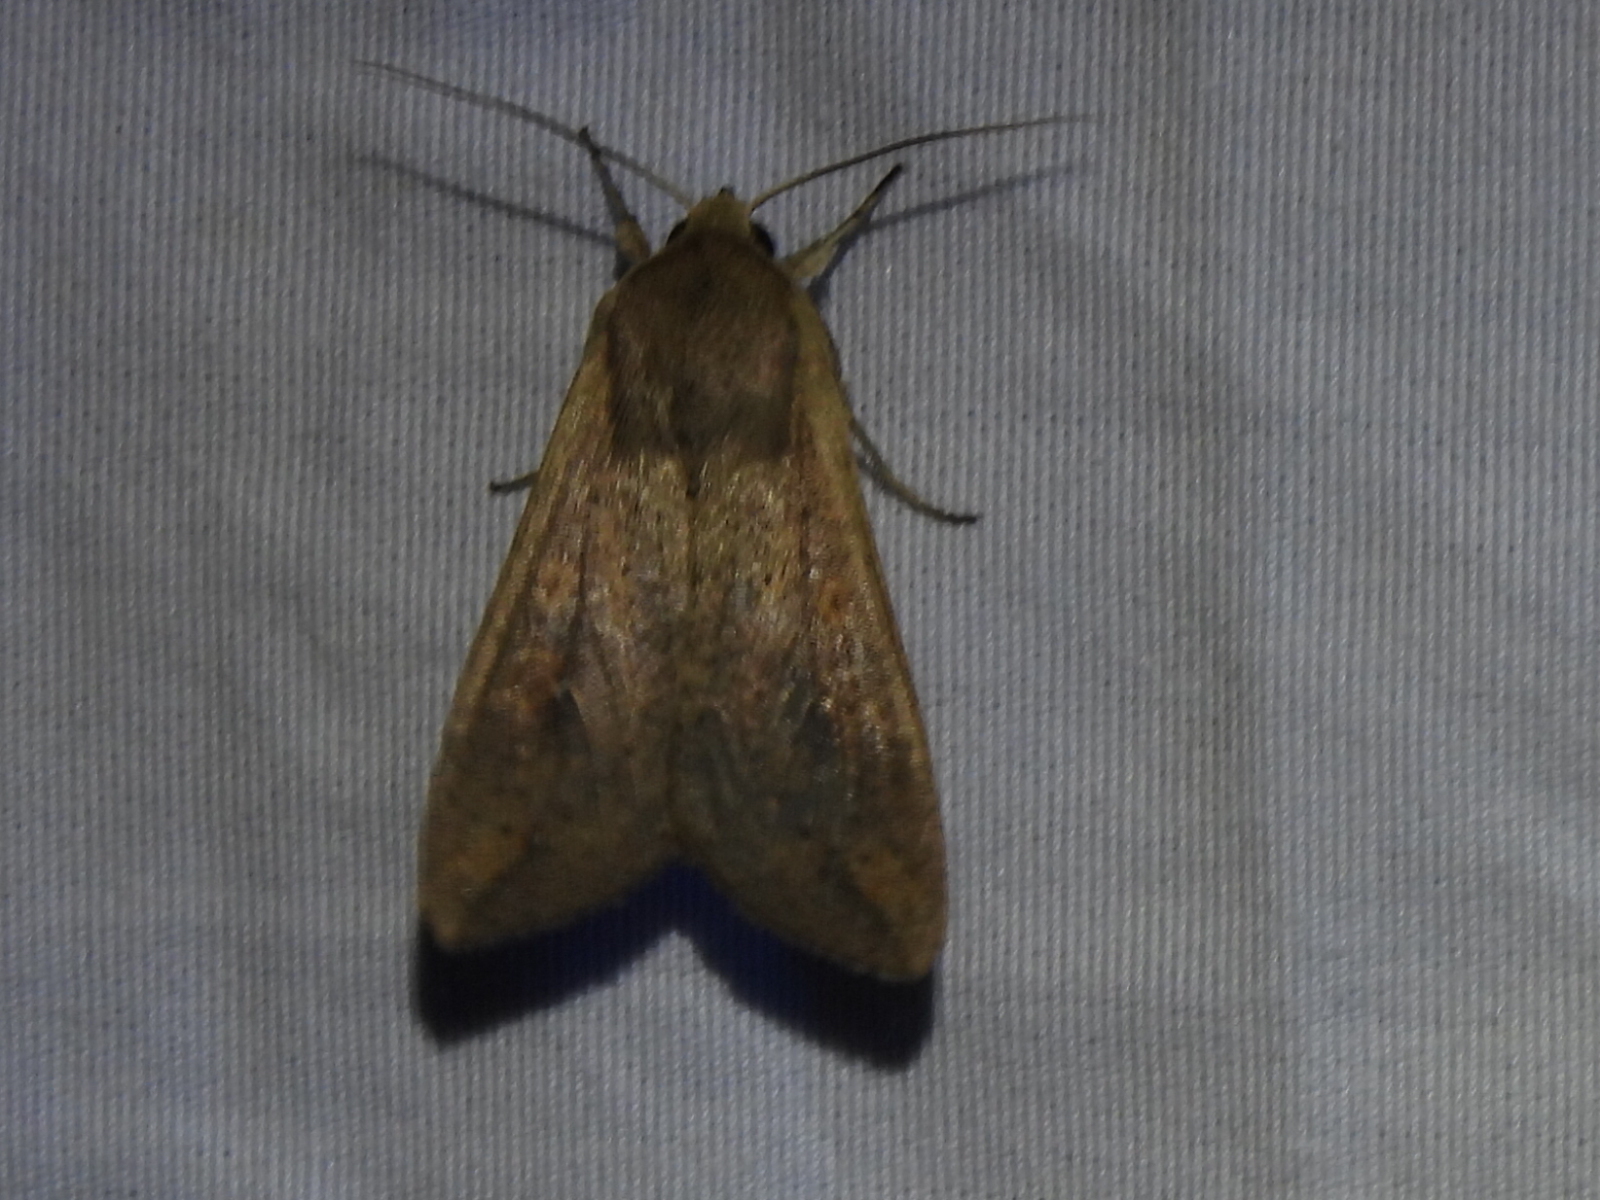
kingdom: Animalia
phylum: Arthropoda
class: Insecta
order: Lepidoptera
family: Noctuidae
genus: Mythimna
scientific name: Mythimna unipuncta
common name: White-speck
